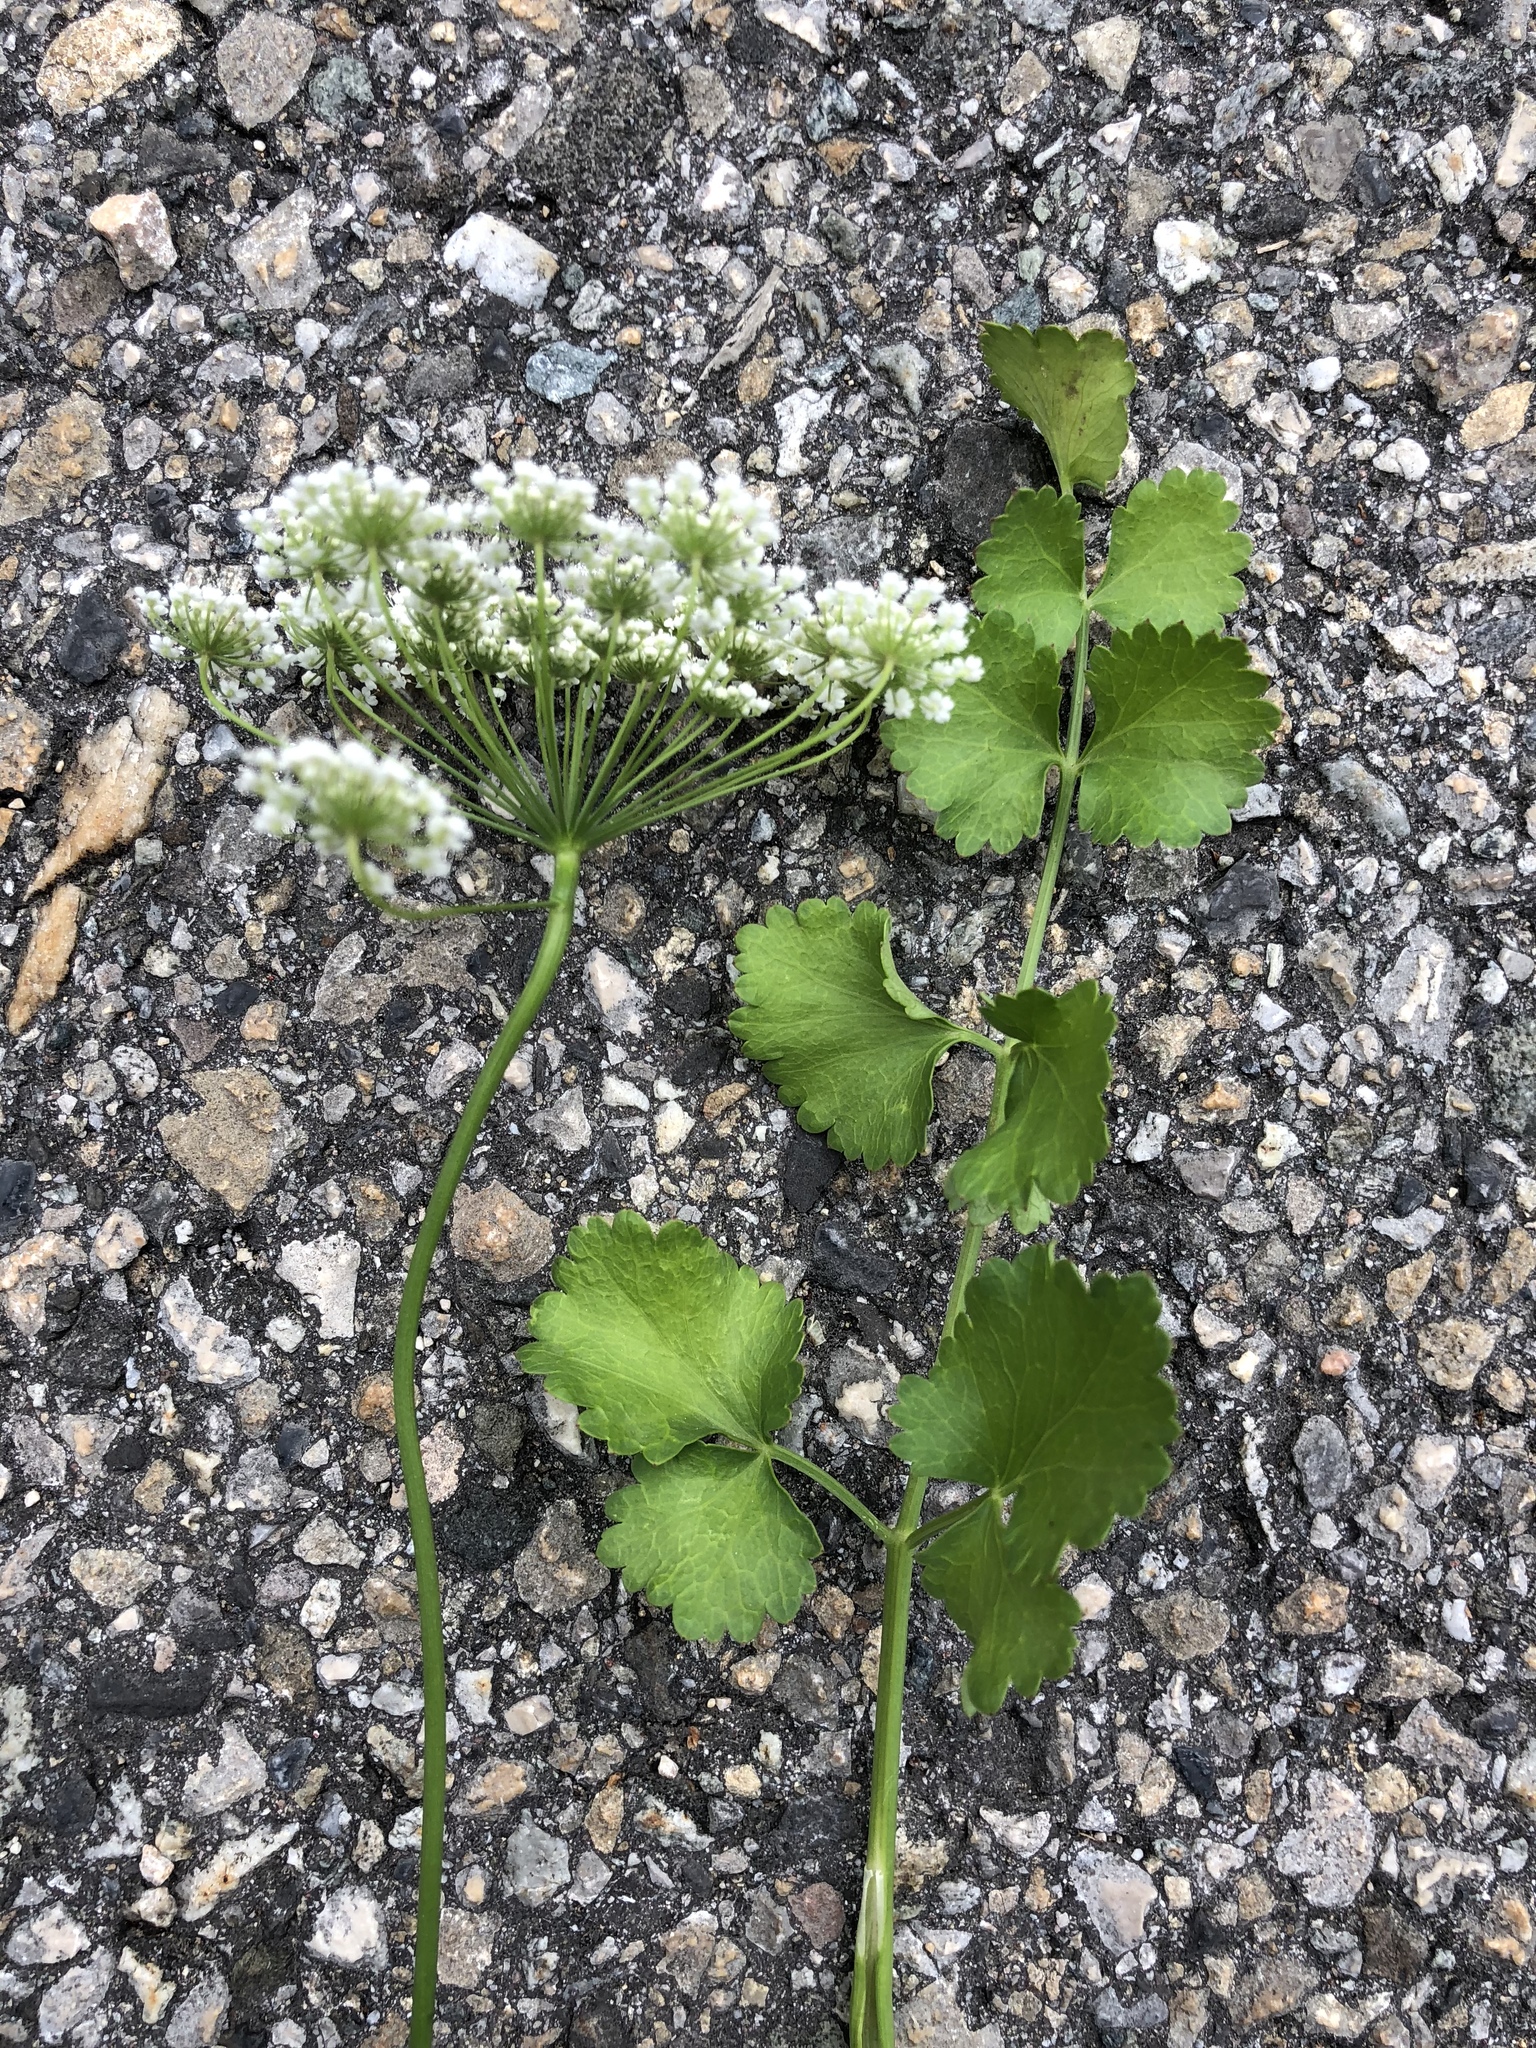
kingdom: Plantae
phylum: Tracheophyta
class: Magnoliopsida
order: Apiales
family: Apiaceae
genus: Pimpinella
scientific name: Pimpinella peregrina
